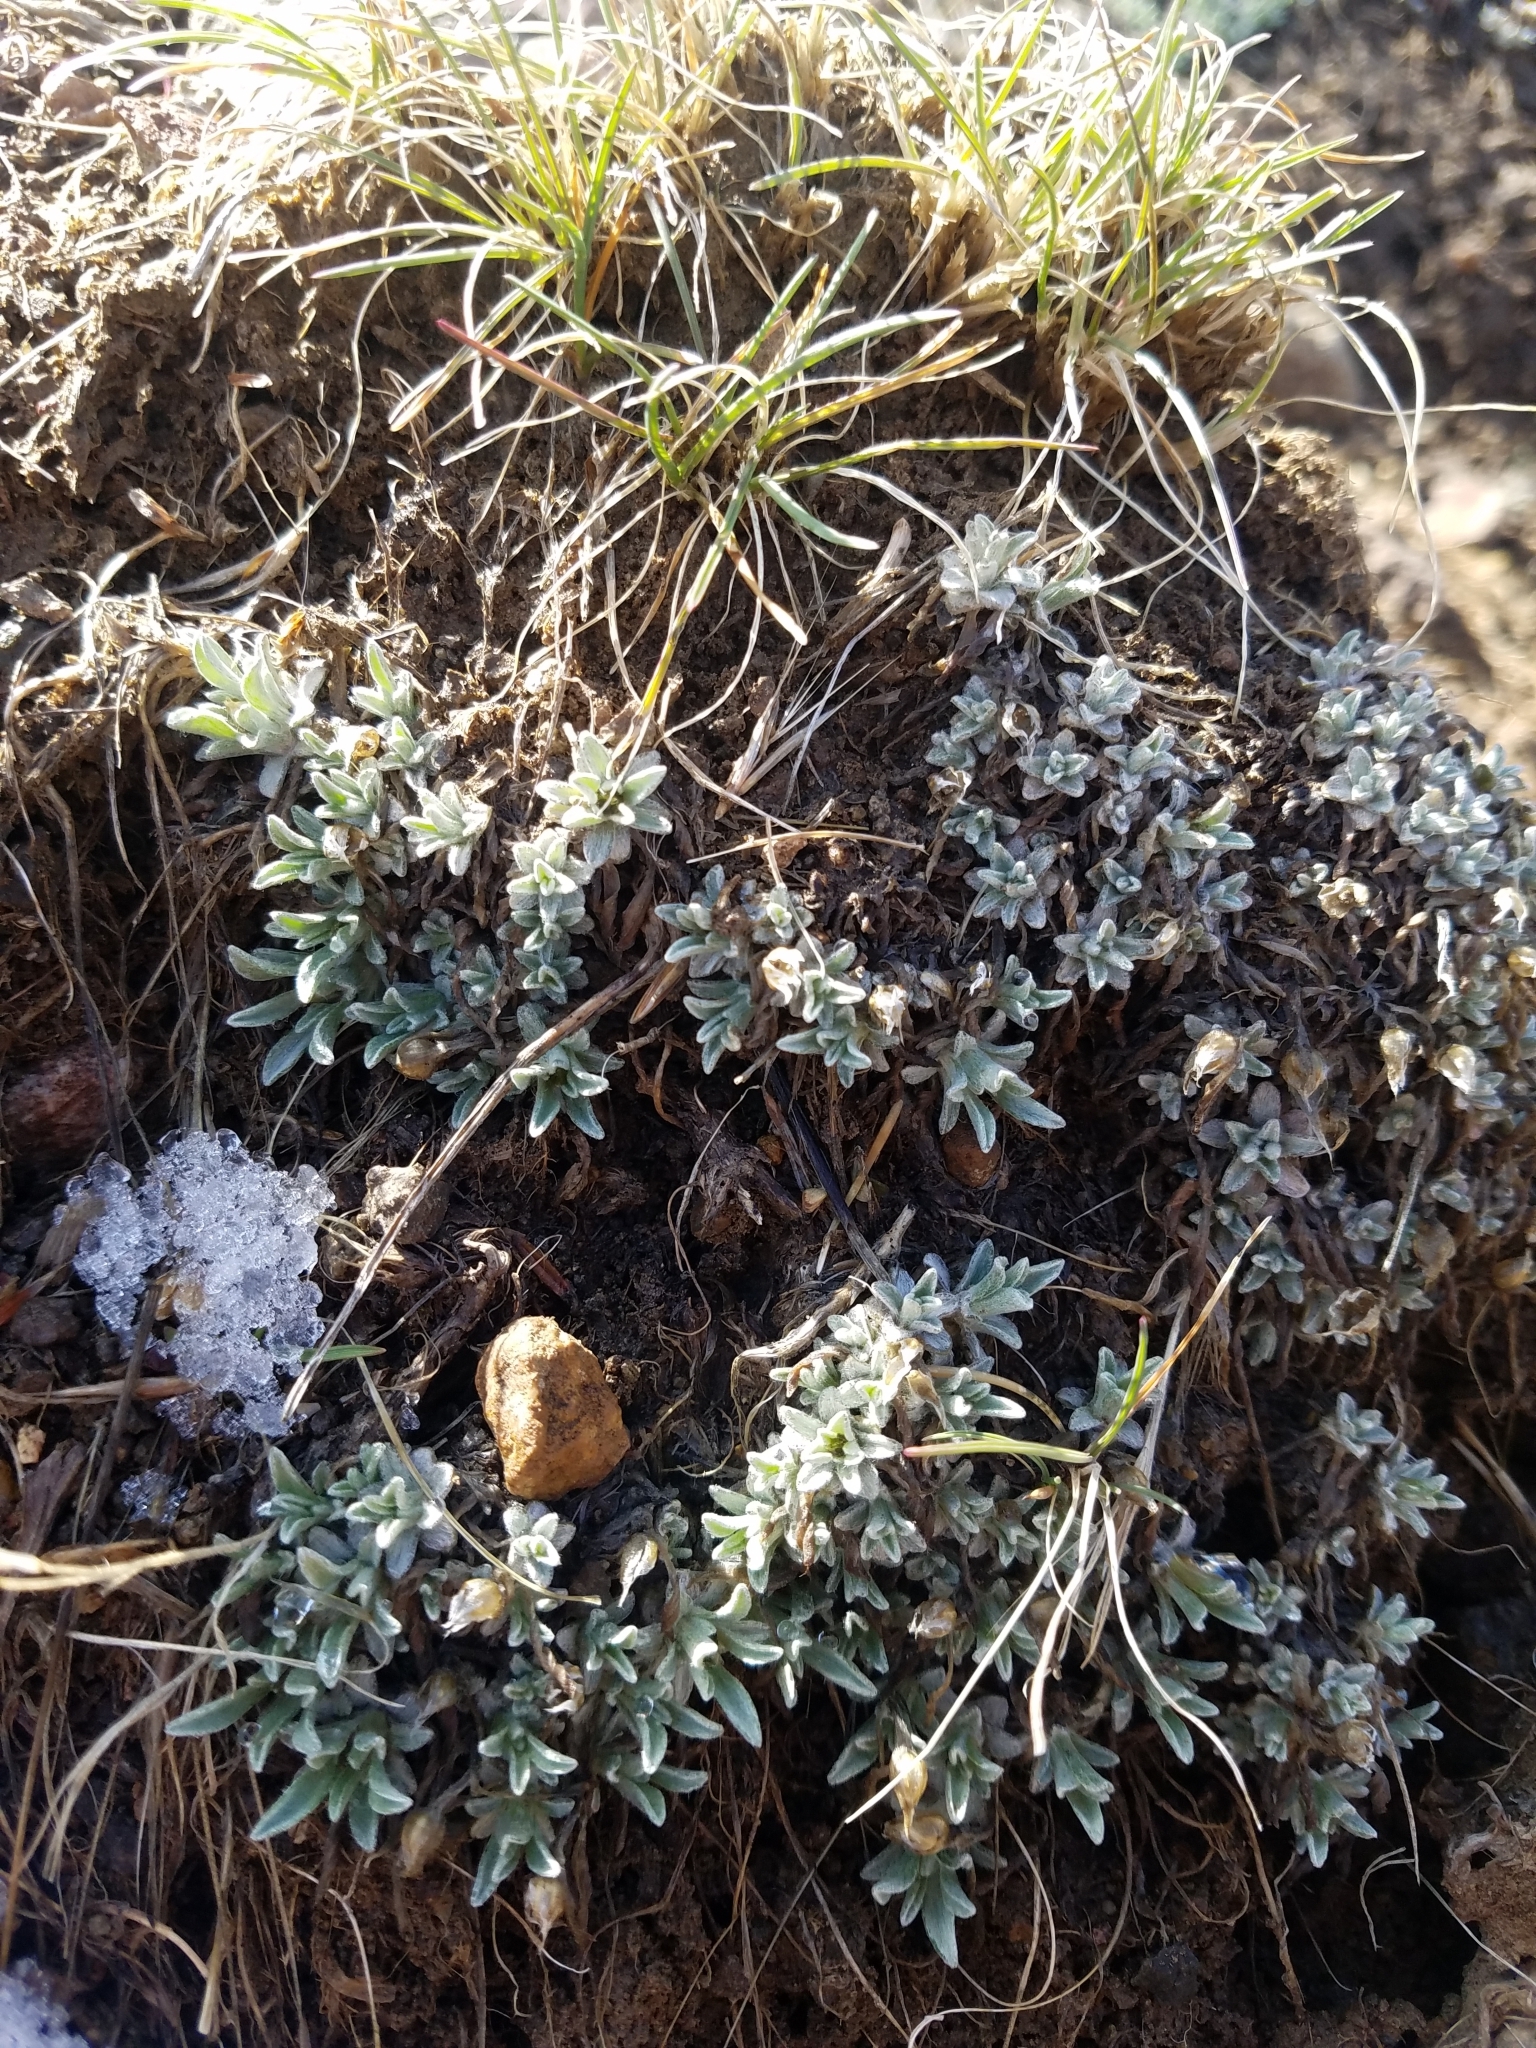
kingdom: Plantae
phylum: Tracheophyta
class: Magnoliopsida
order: Asterales
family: Asteraceae
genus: Antennaria
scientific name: Antennaria dimorpha
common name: Cushion pussytoes
